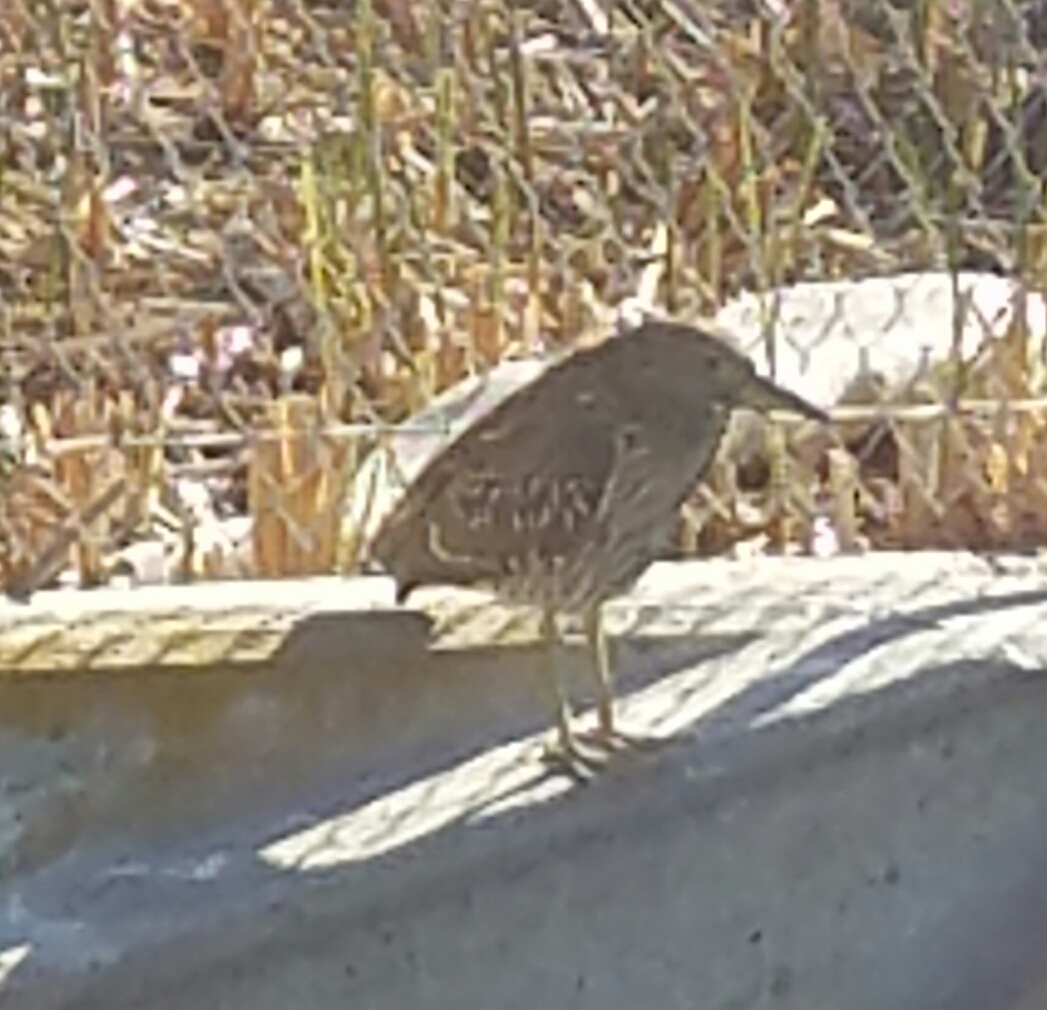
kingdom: Animalia
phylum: Chordata
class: Aves
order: Pelecaniformes
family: Ardeidae
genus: Nycticorax
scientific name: Nycticorax nycticorax
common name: Black-crowned night heron
